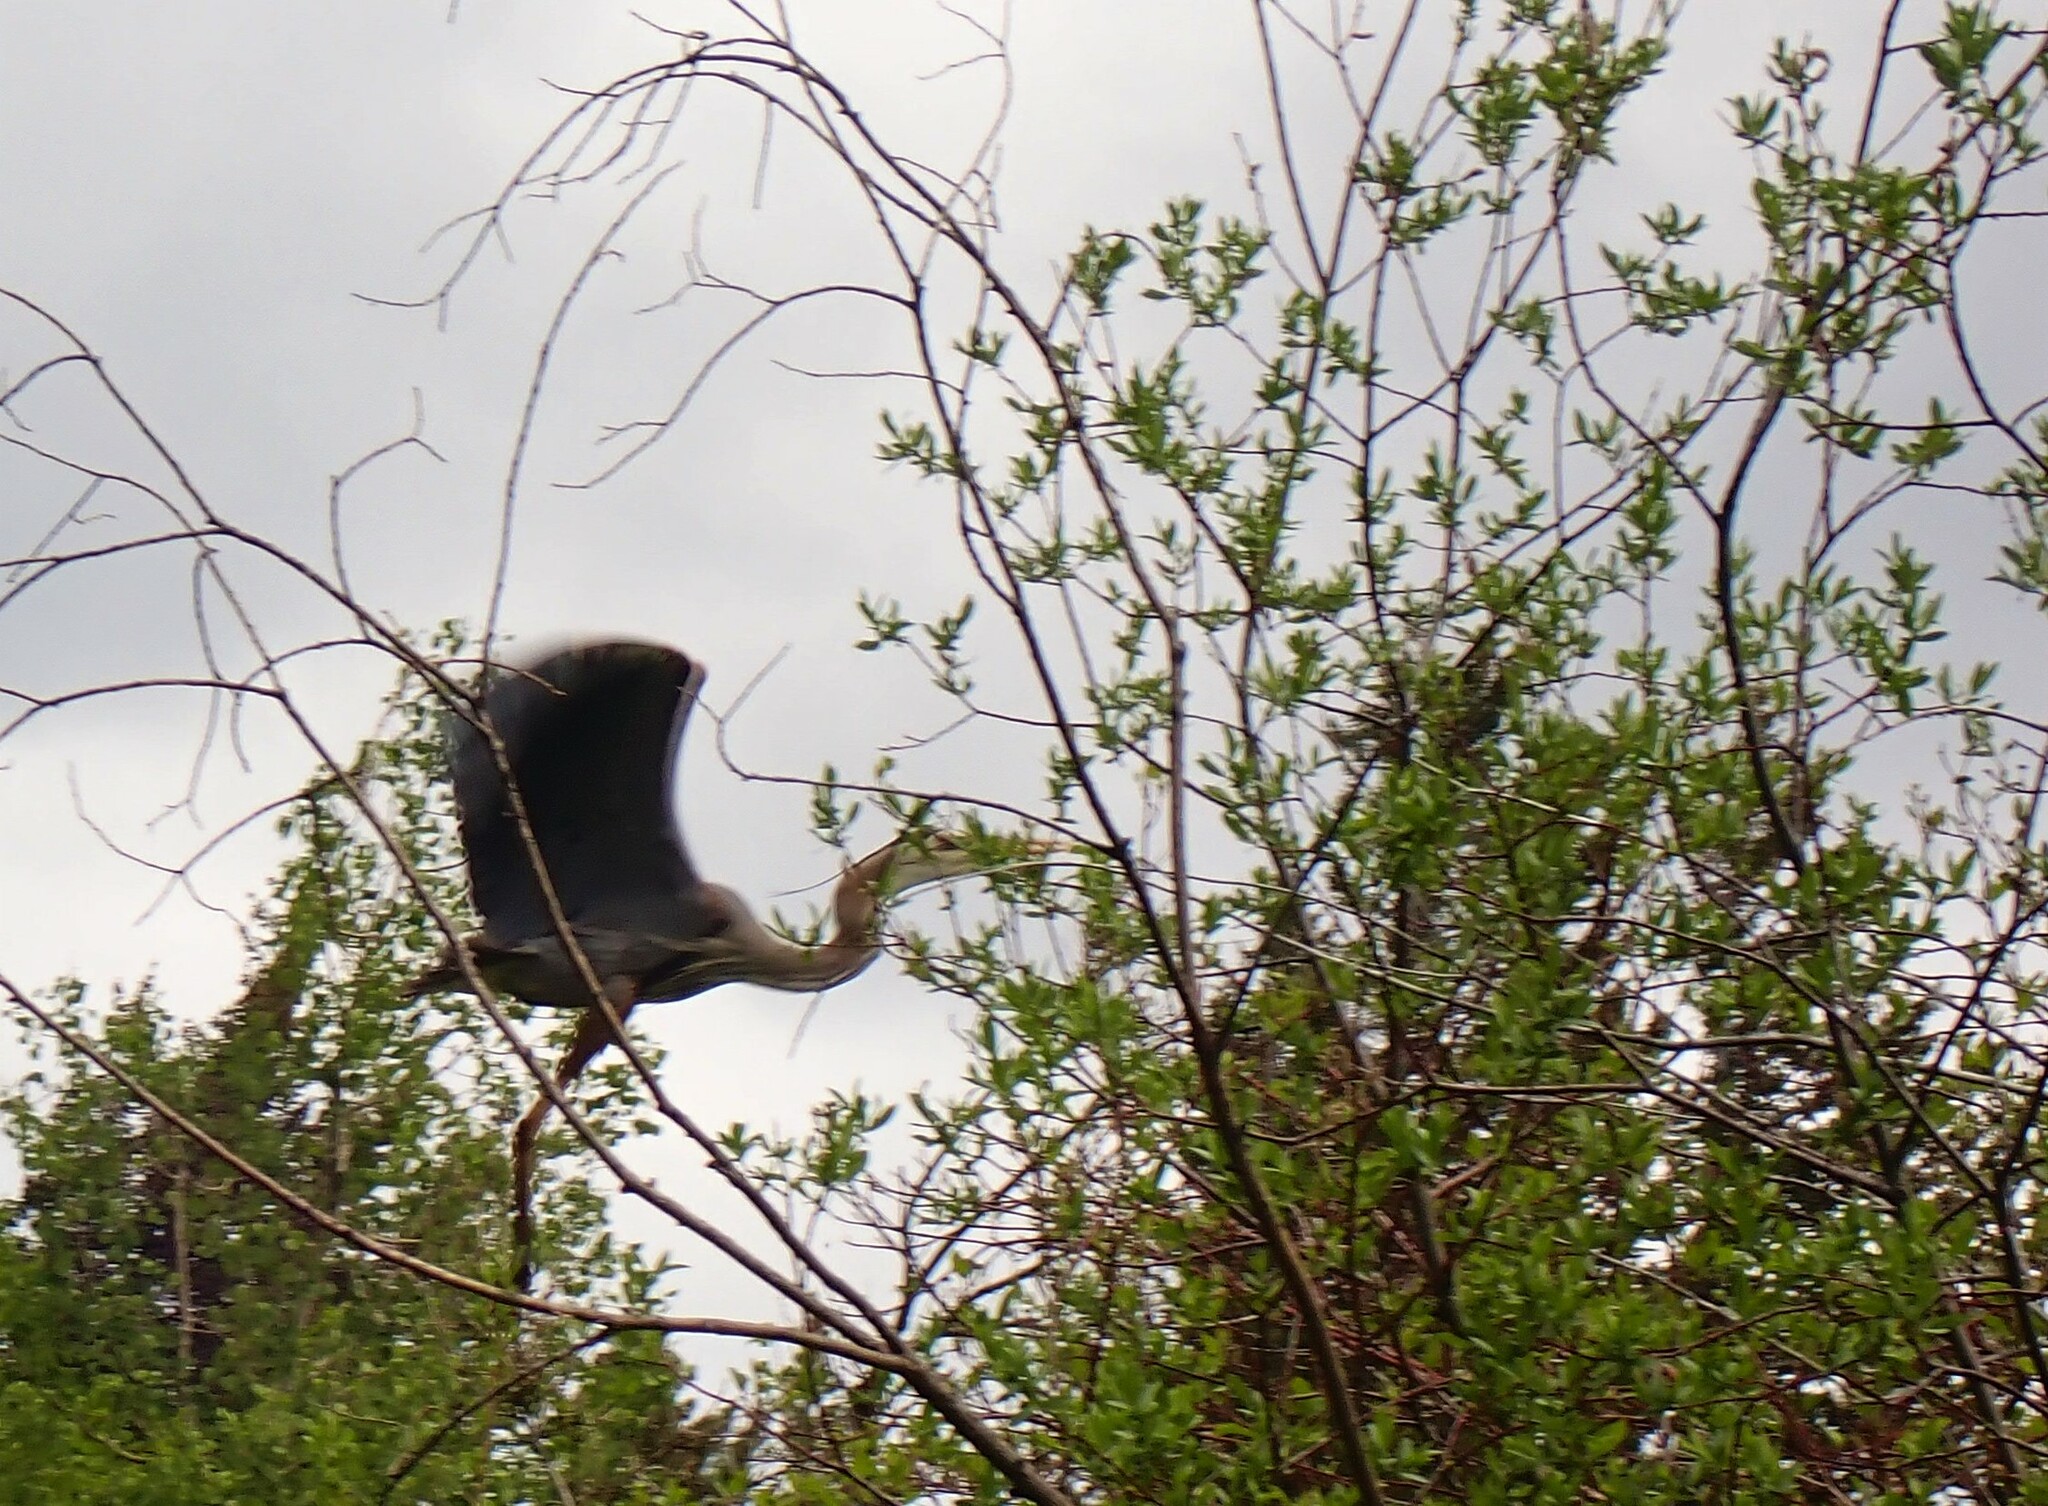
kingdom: Animalia
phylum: Chordata
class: Aves
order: Pelecaniformes
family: Ardeidae
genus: Ardea
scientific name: Ardea herodias
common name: Great blue heron
